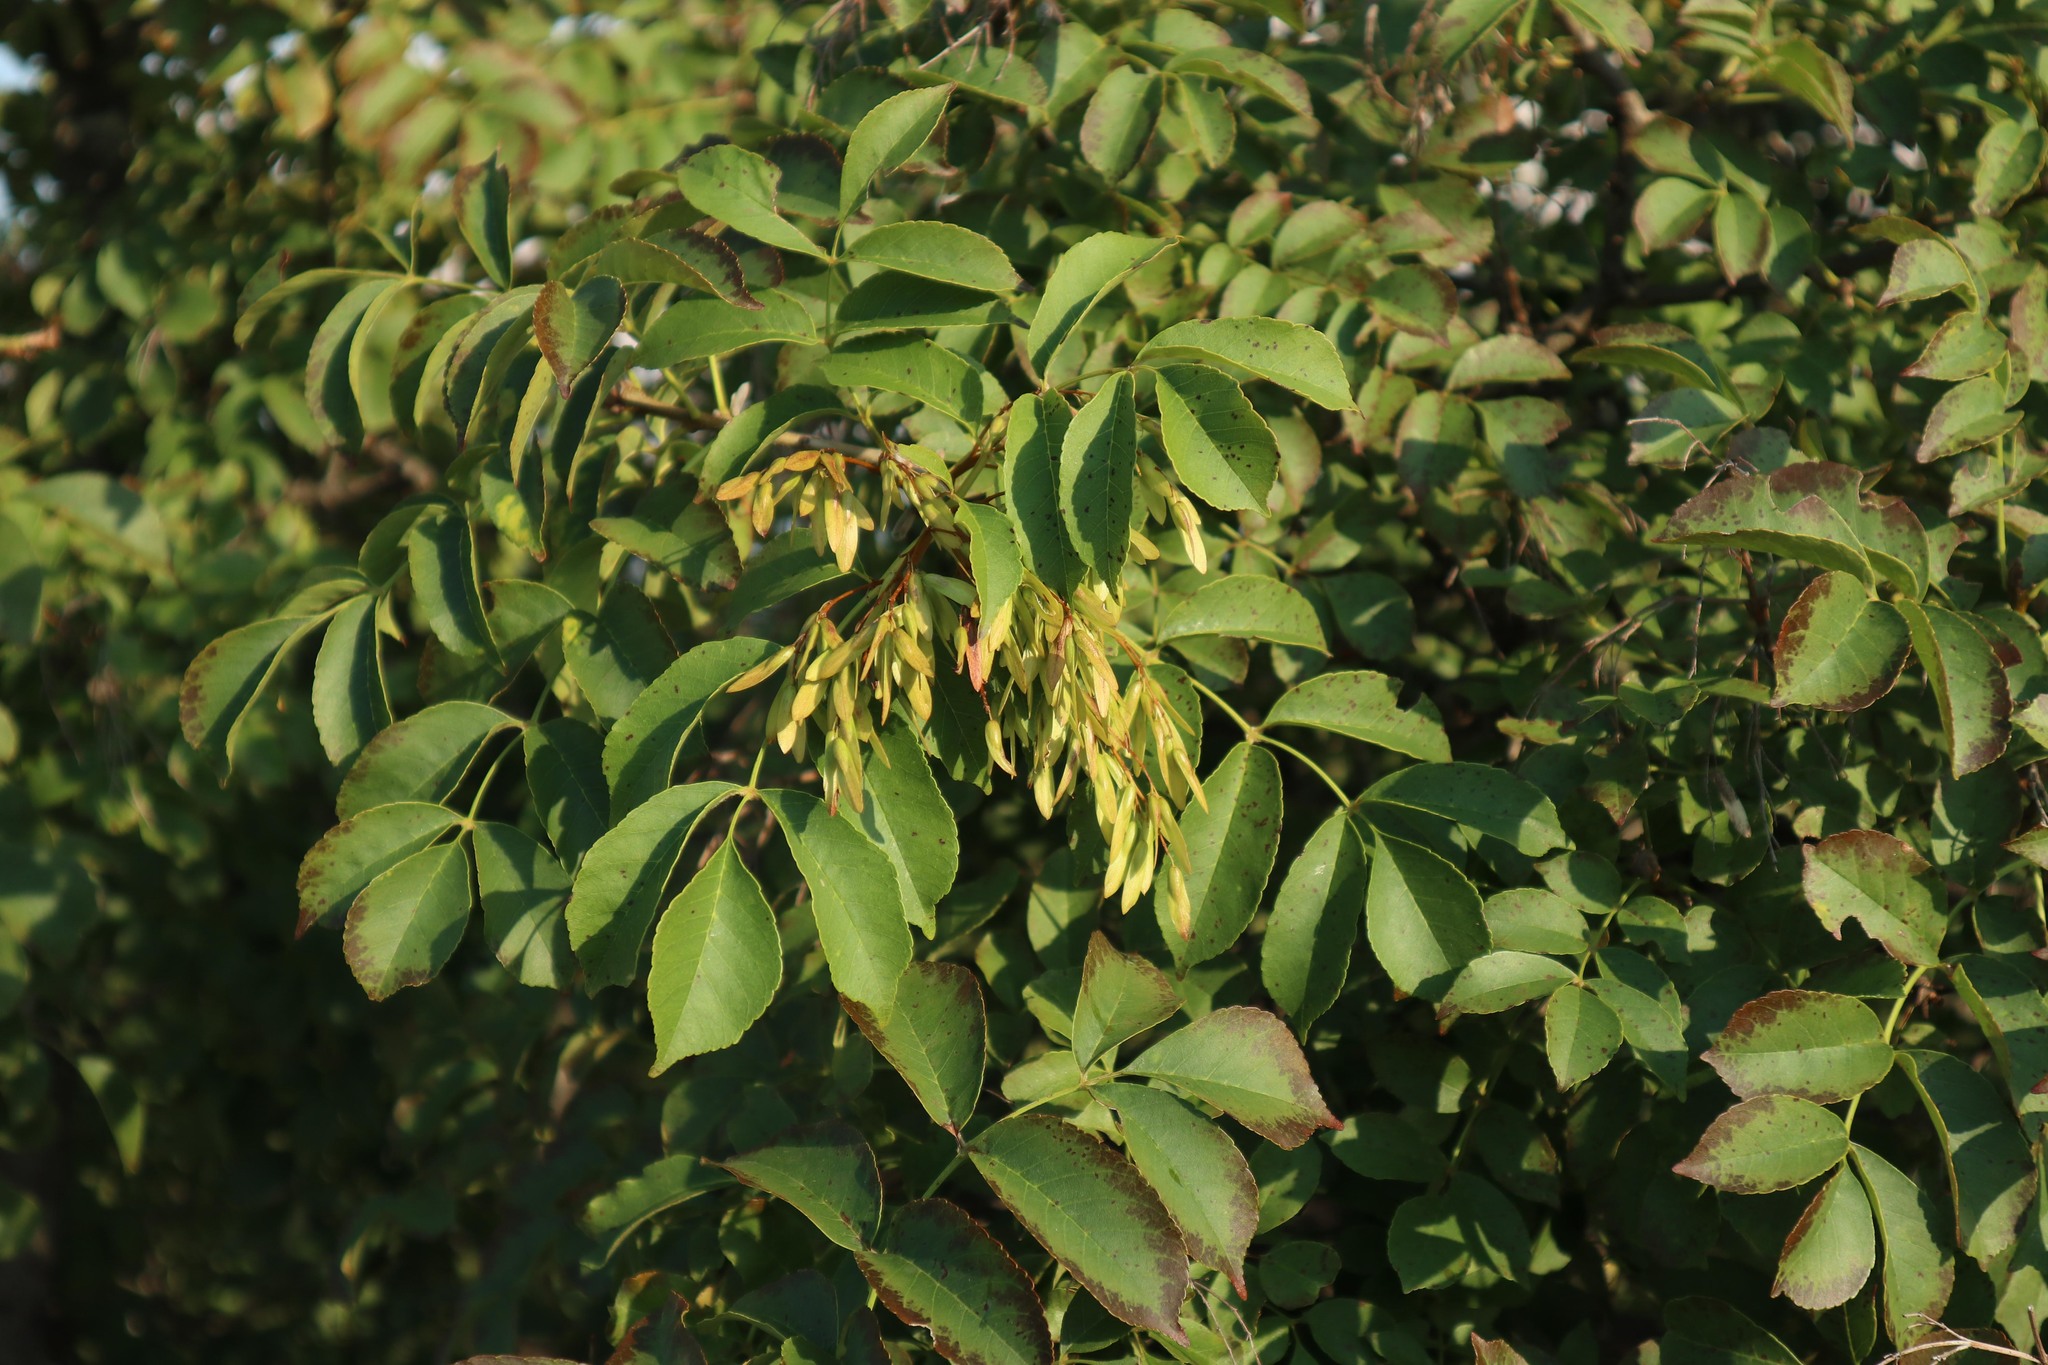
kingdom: Plantae
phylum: Tracheophyta
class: Magnoliopsida
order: Lamiales
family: Oleaceae
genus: Fraxinus
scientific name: Fraxinus ornus
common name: Manna ash
